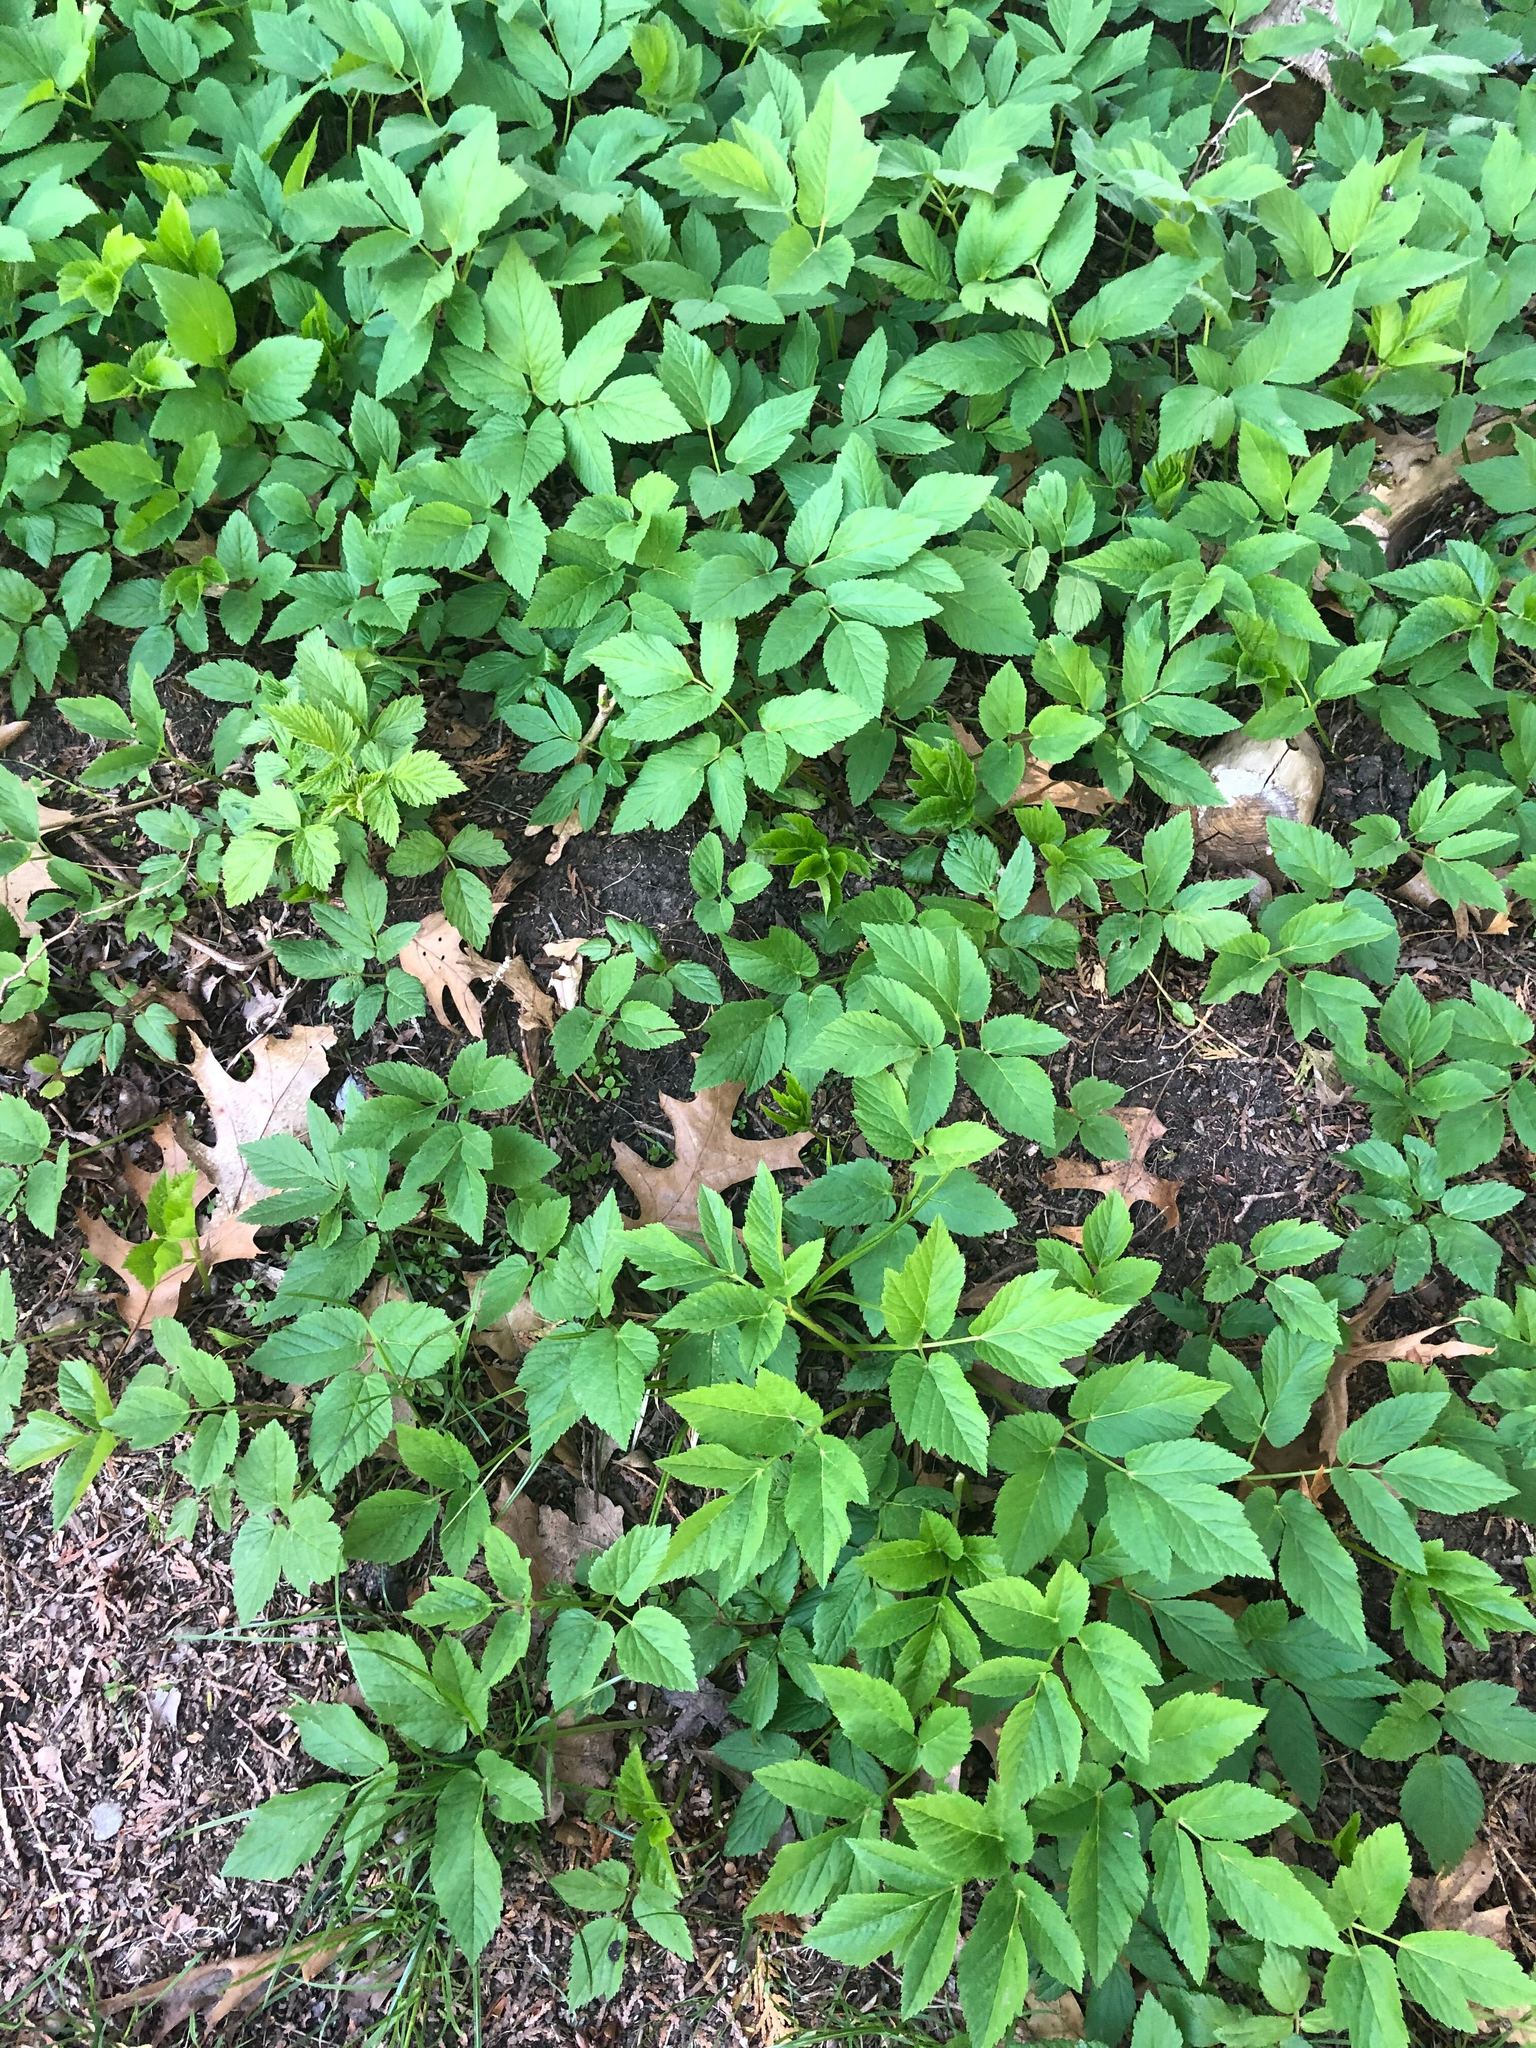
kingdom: Plantae
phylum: Tracheophyta
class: Magnoliopsida
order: Apiales
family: Apiaceae
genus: Aegopodium
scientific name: Aegopodium podagraria
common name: Ground-elder
